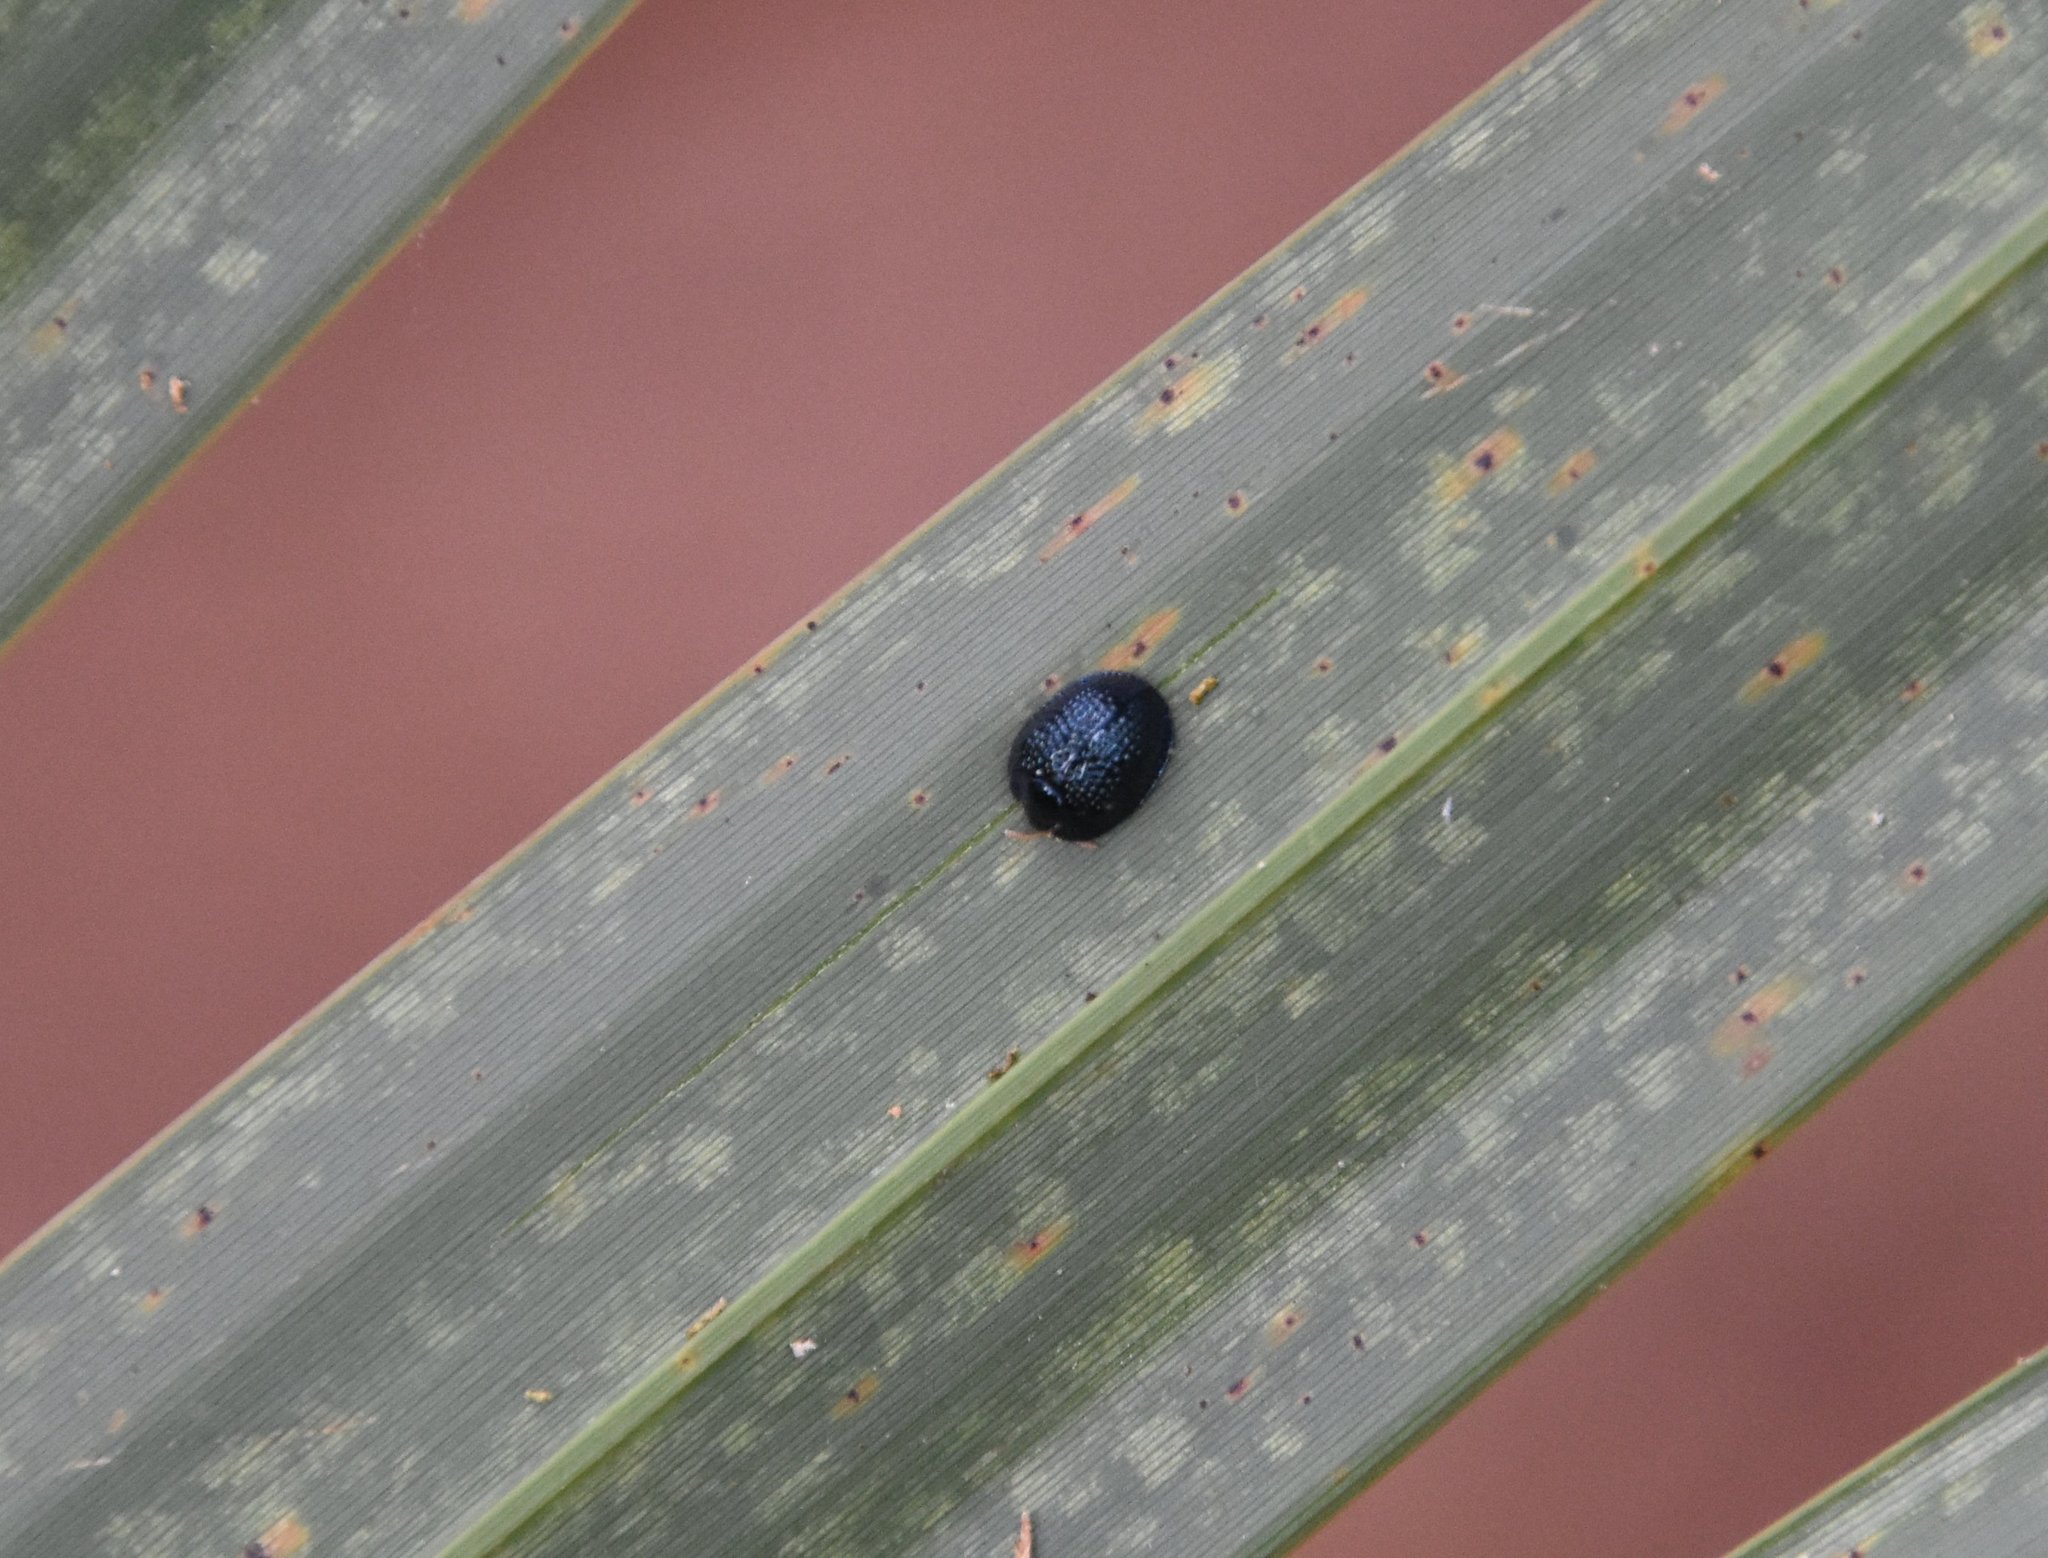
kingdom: Animalia
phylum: Arthropoda
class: Insecta
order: Coleoptera
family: Chrysomelidae
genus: Hemisphaerota
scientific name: Hemisphaerota cyanea
